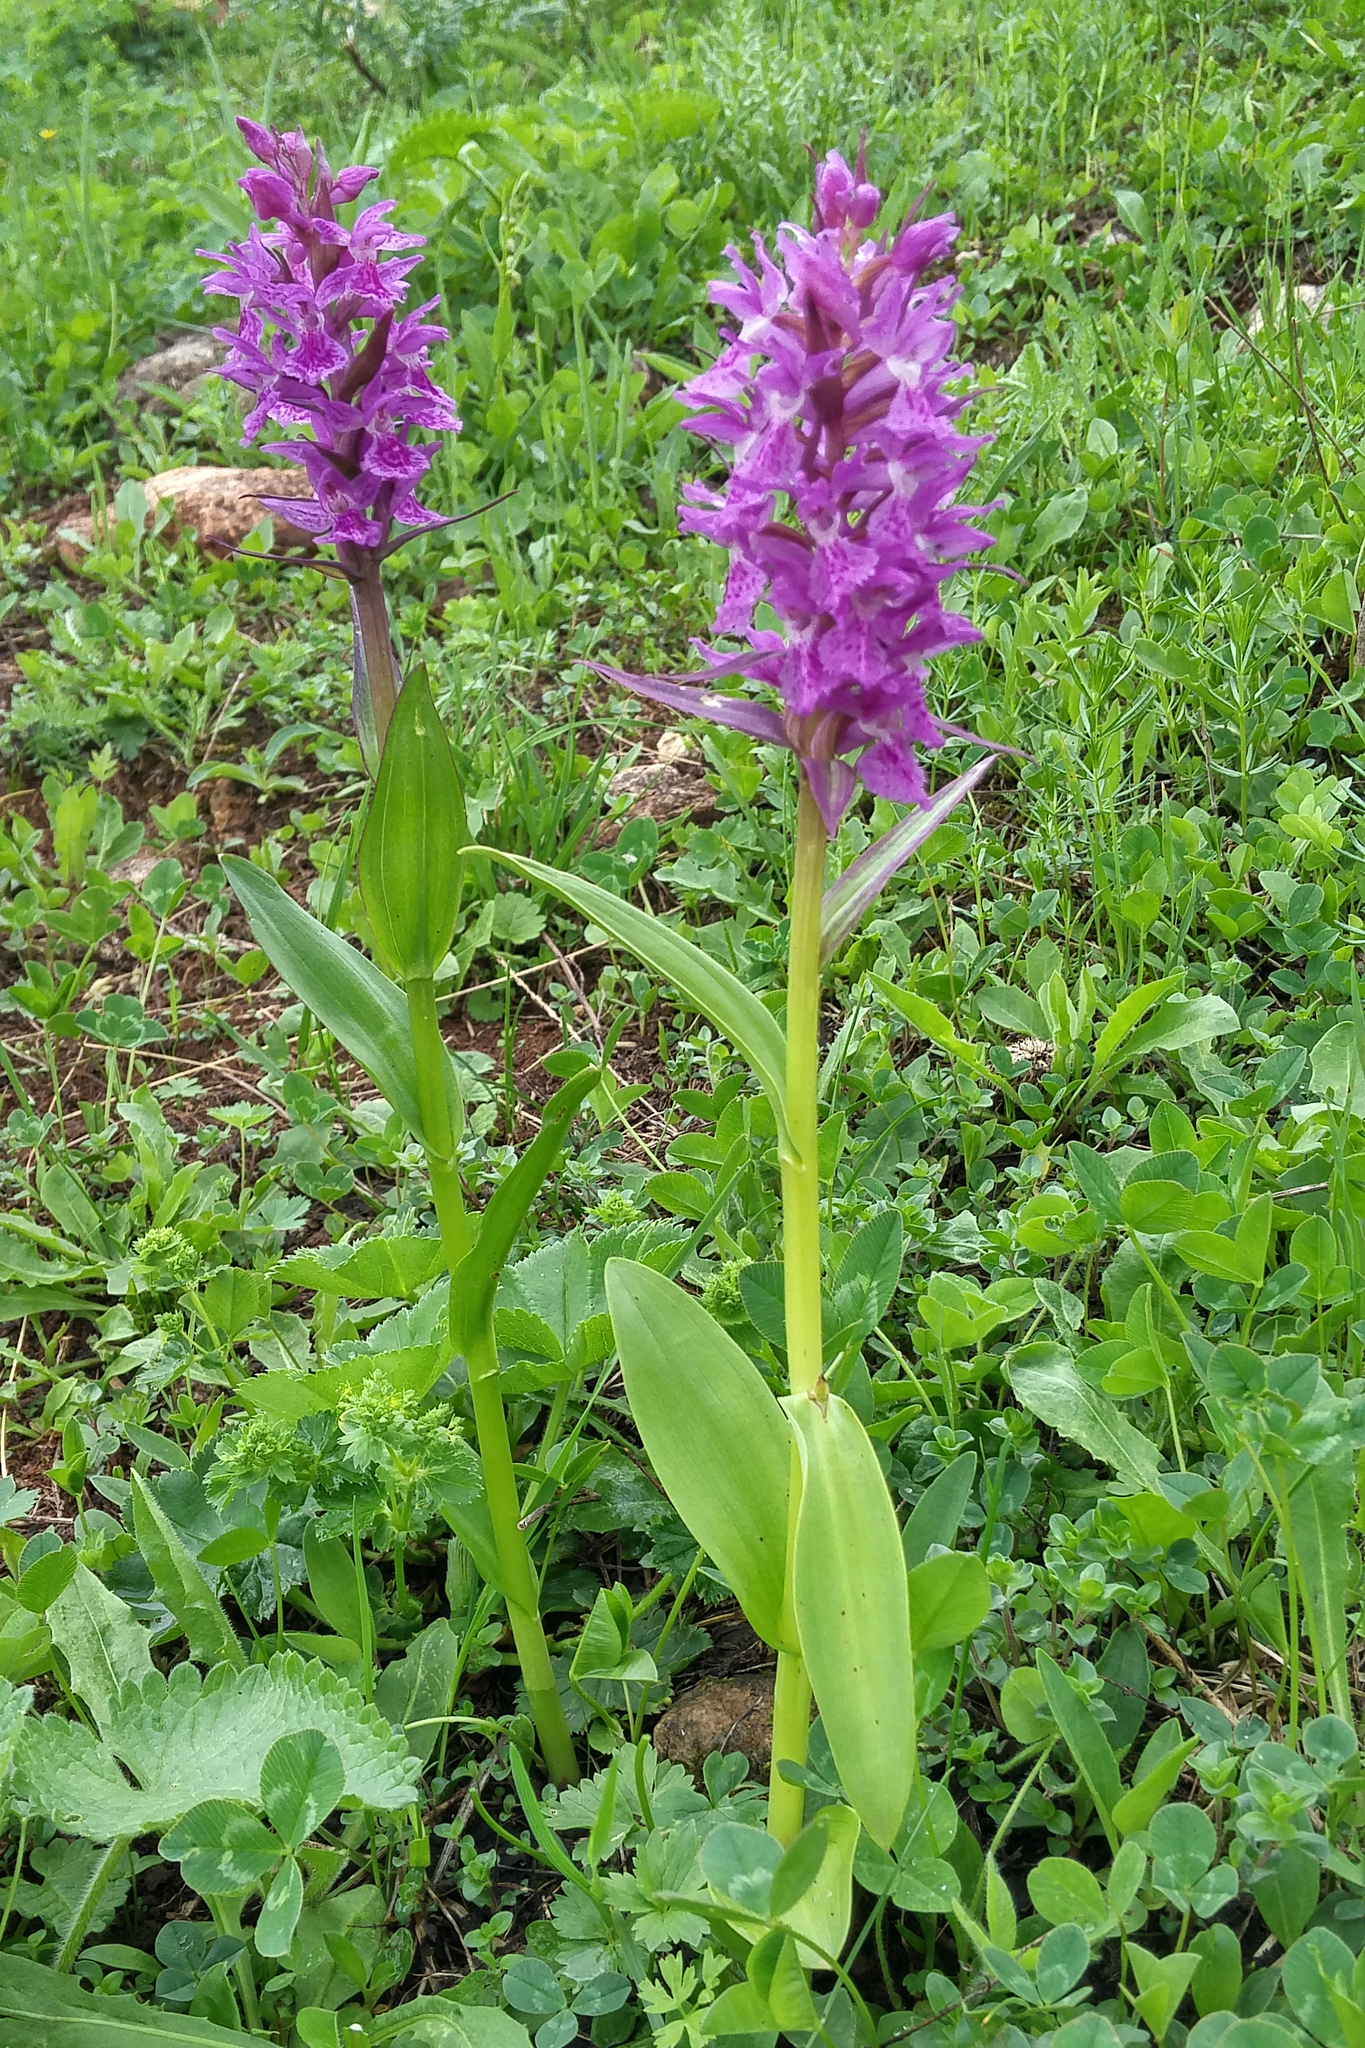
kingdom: Plantae
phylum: Tracheophyta
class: Liliopsida
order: Asparagales
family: Orchidaceae
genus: Dactylorhiza
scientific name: Dactylorhiza euxina
